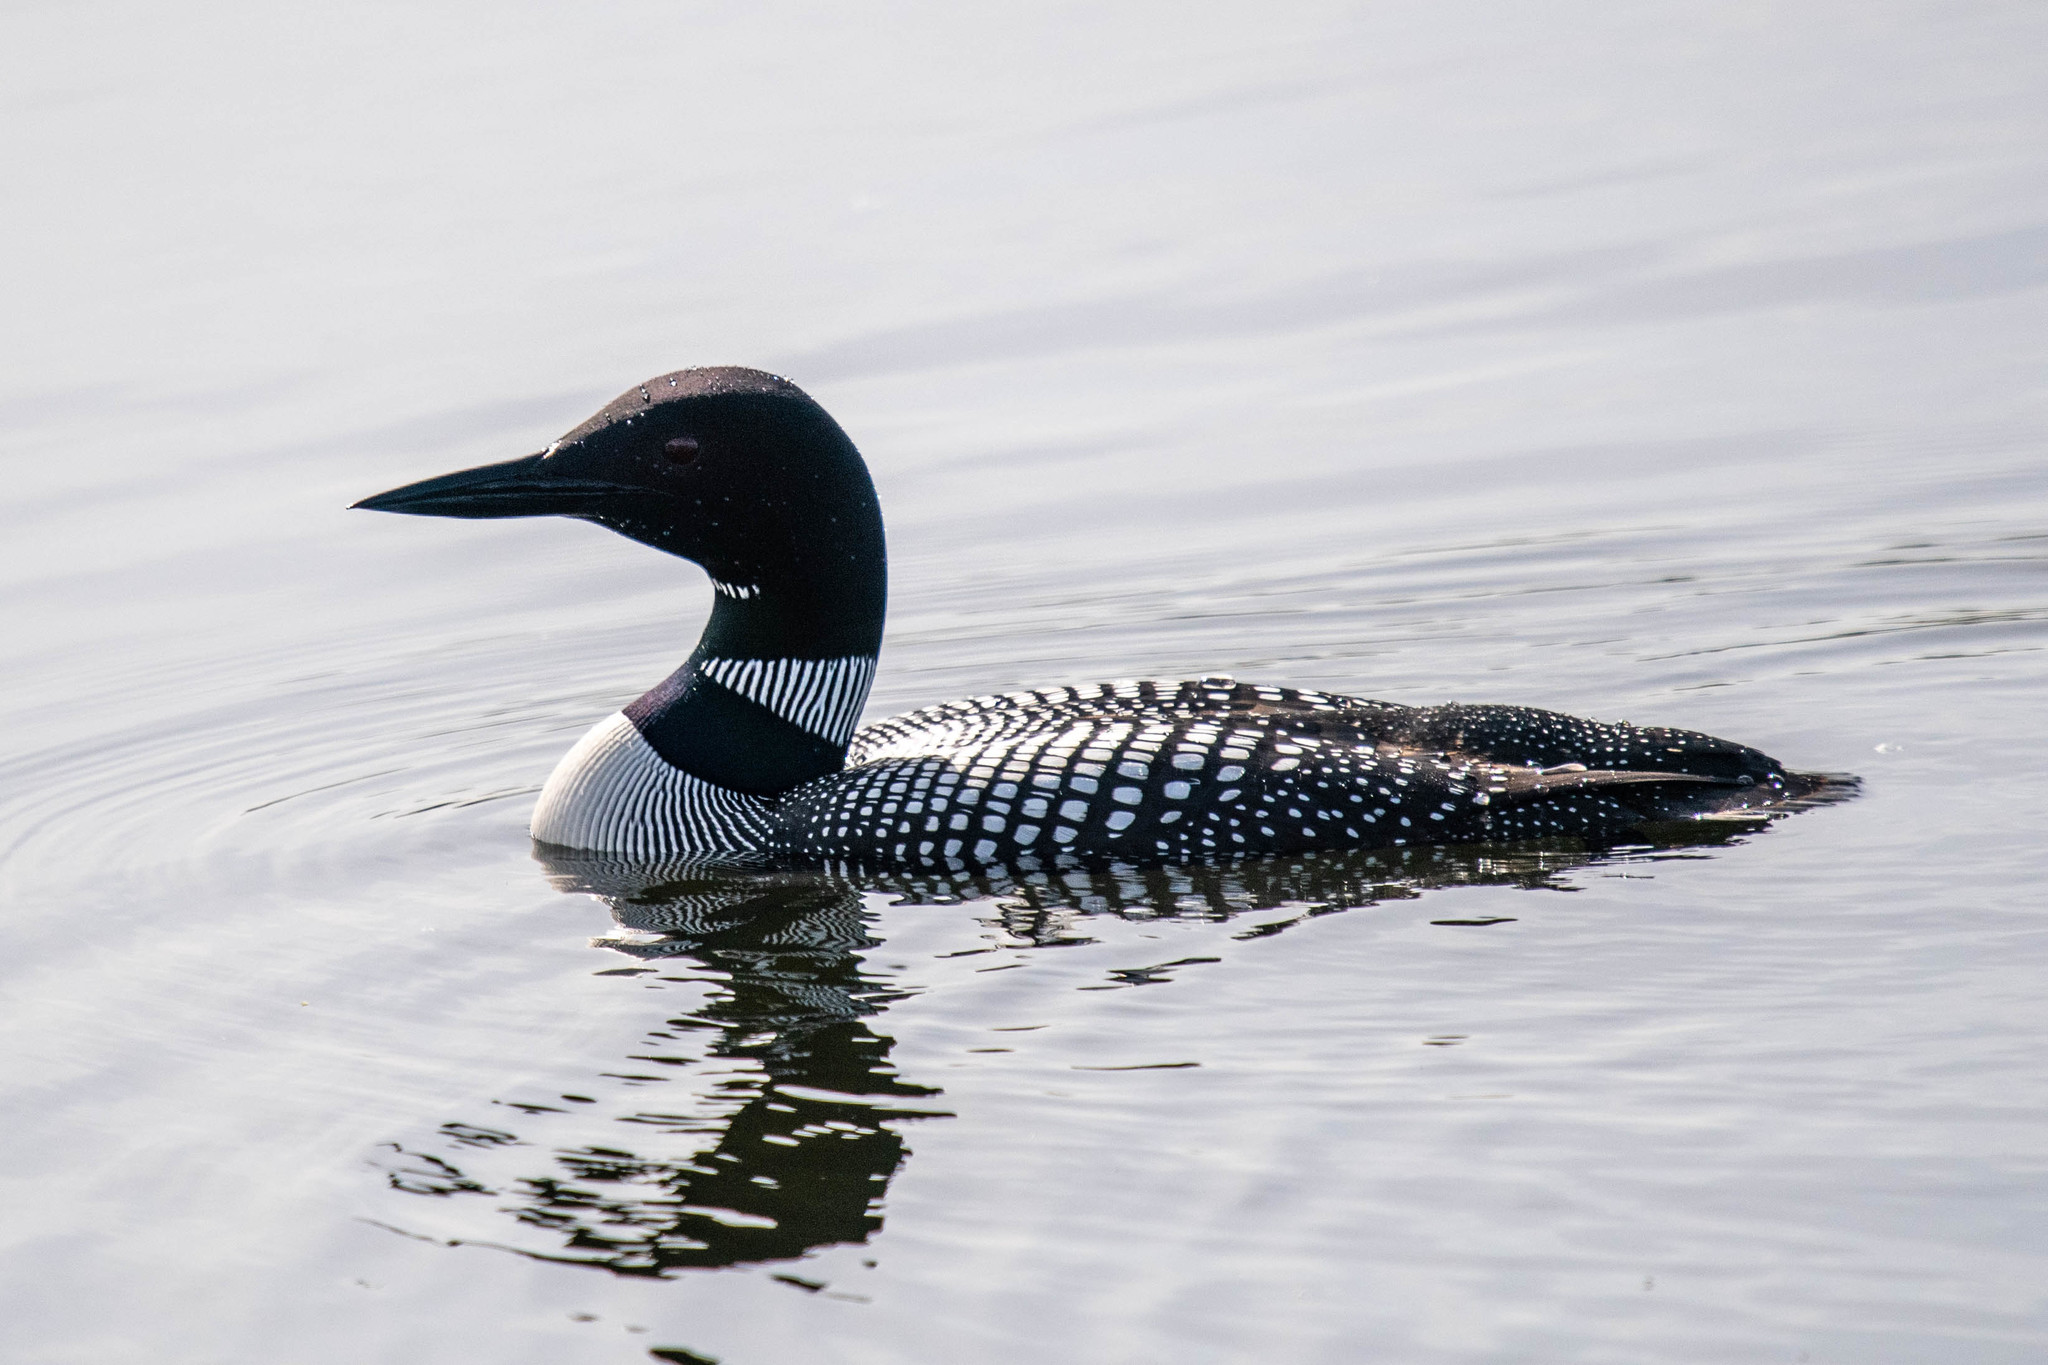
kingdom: Animalia
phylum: Chordata
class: Aves
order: Gaviiformes
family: Gaviidae
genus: Gavia
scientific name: Gavia immer
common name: Common loon
